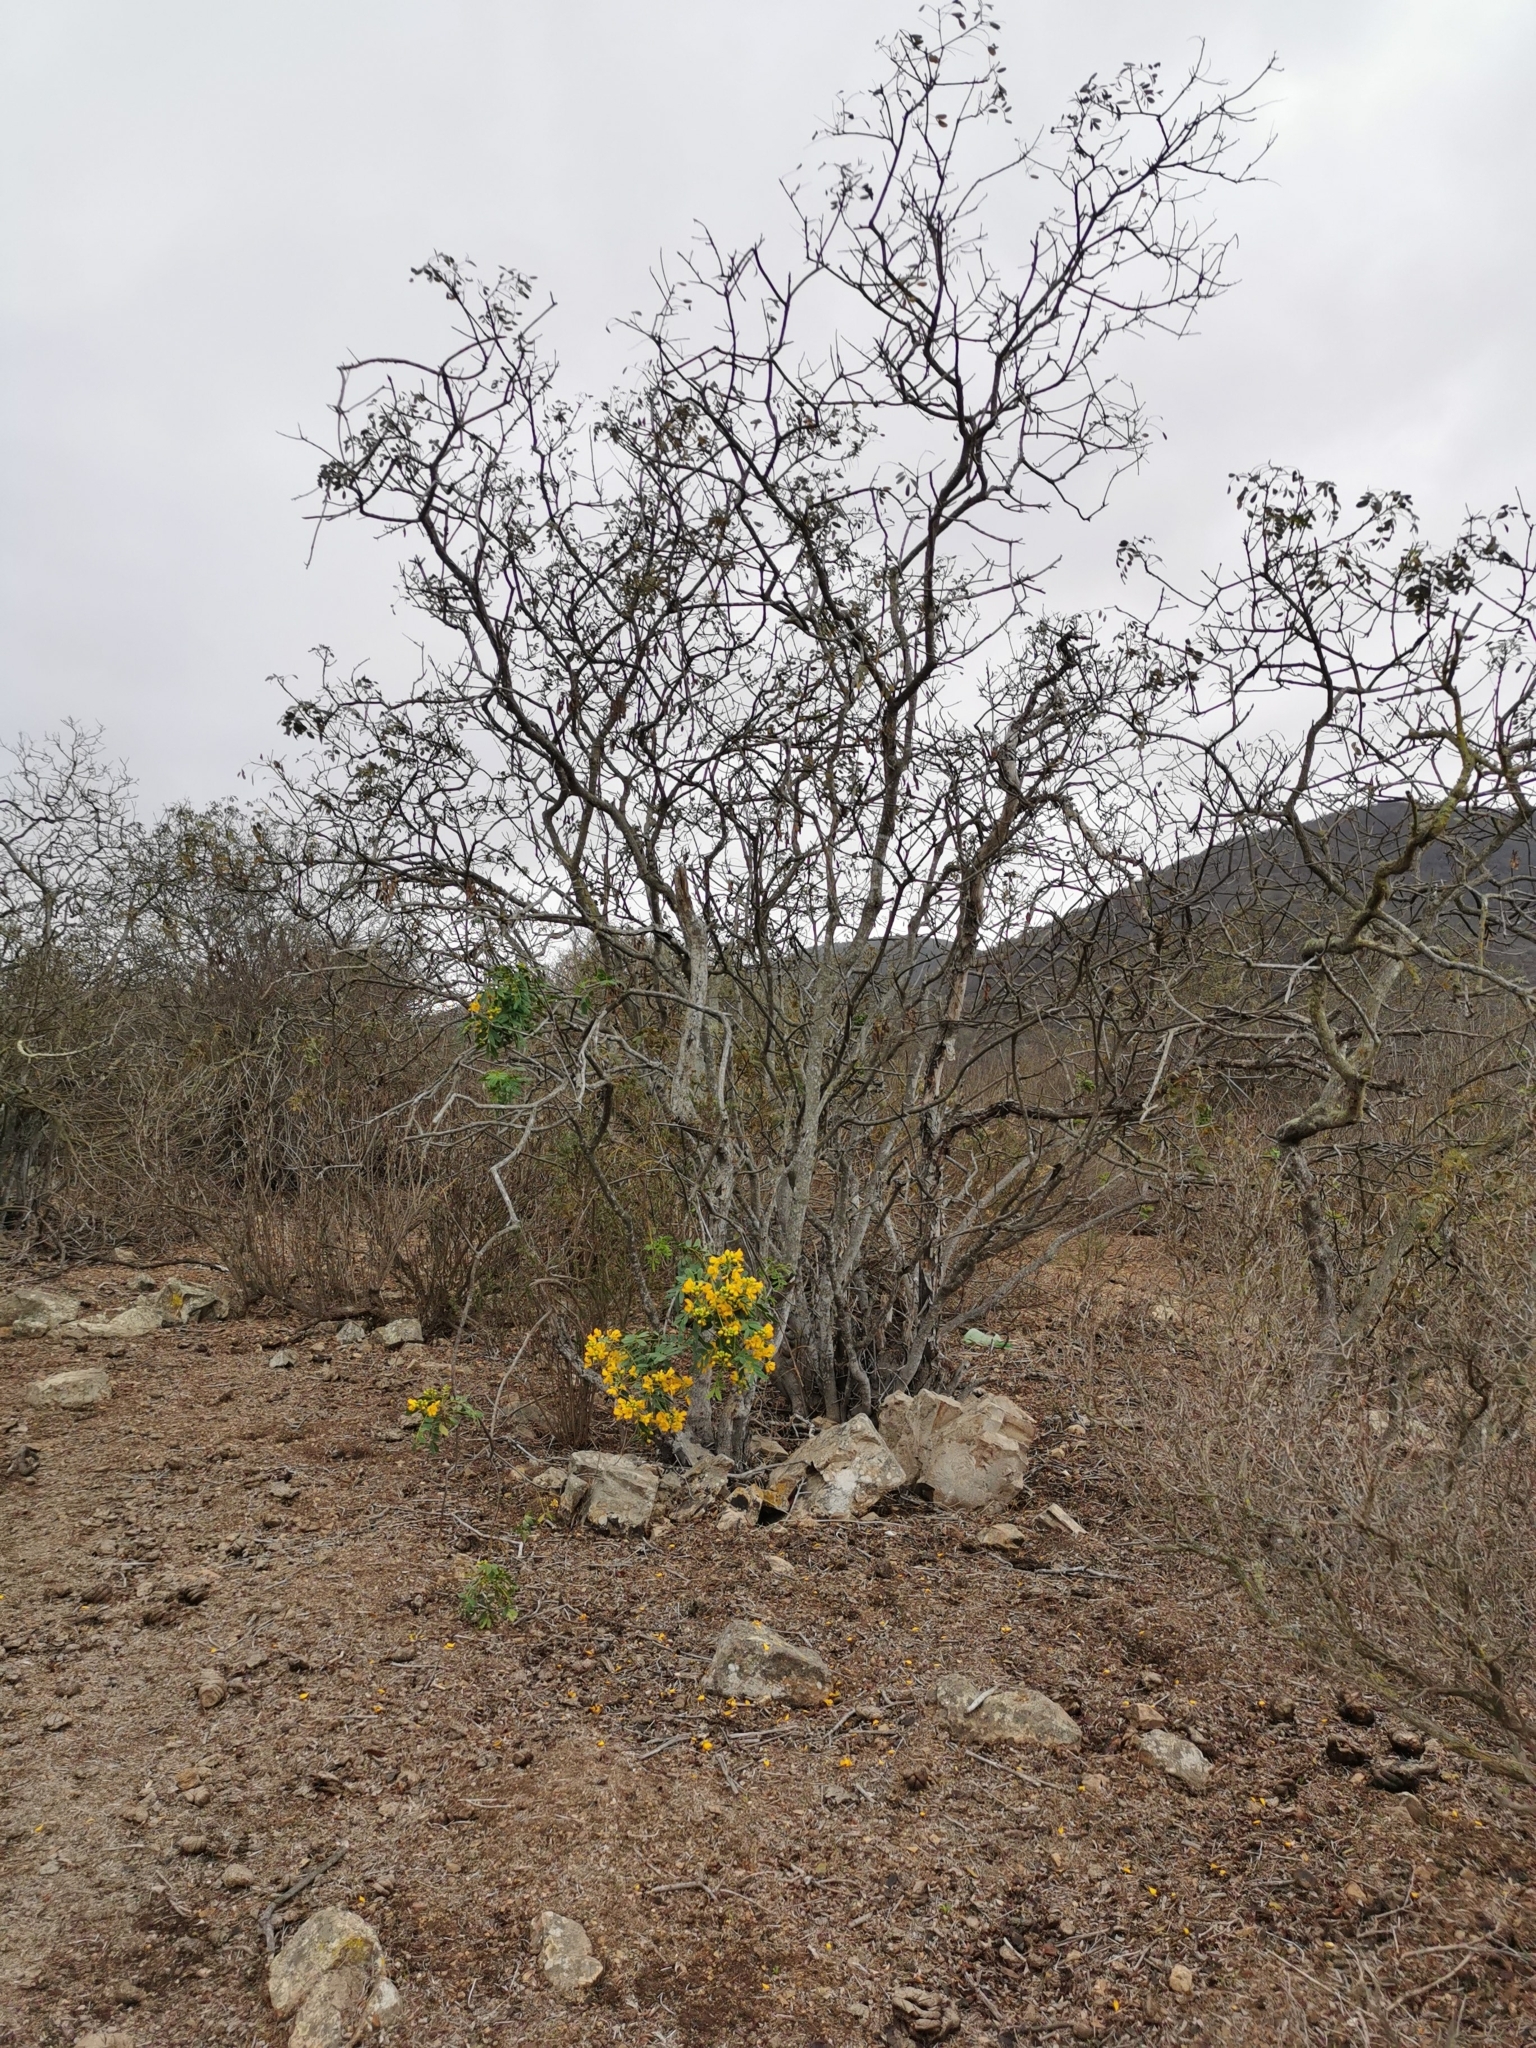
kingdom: Plantae
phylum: Tracheophyta
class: Magnoliopsida
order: Fabales
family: Fabaceae
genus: Senna
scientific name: Senna candolleana
